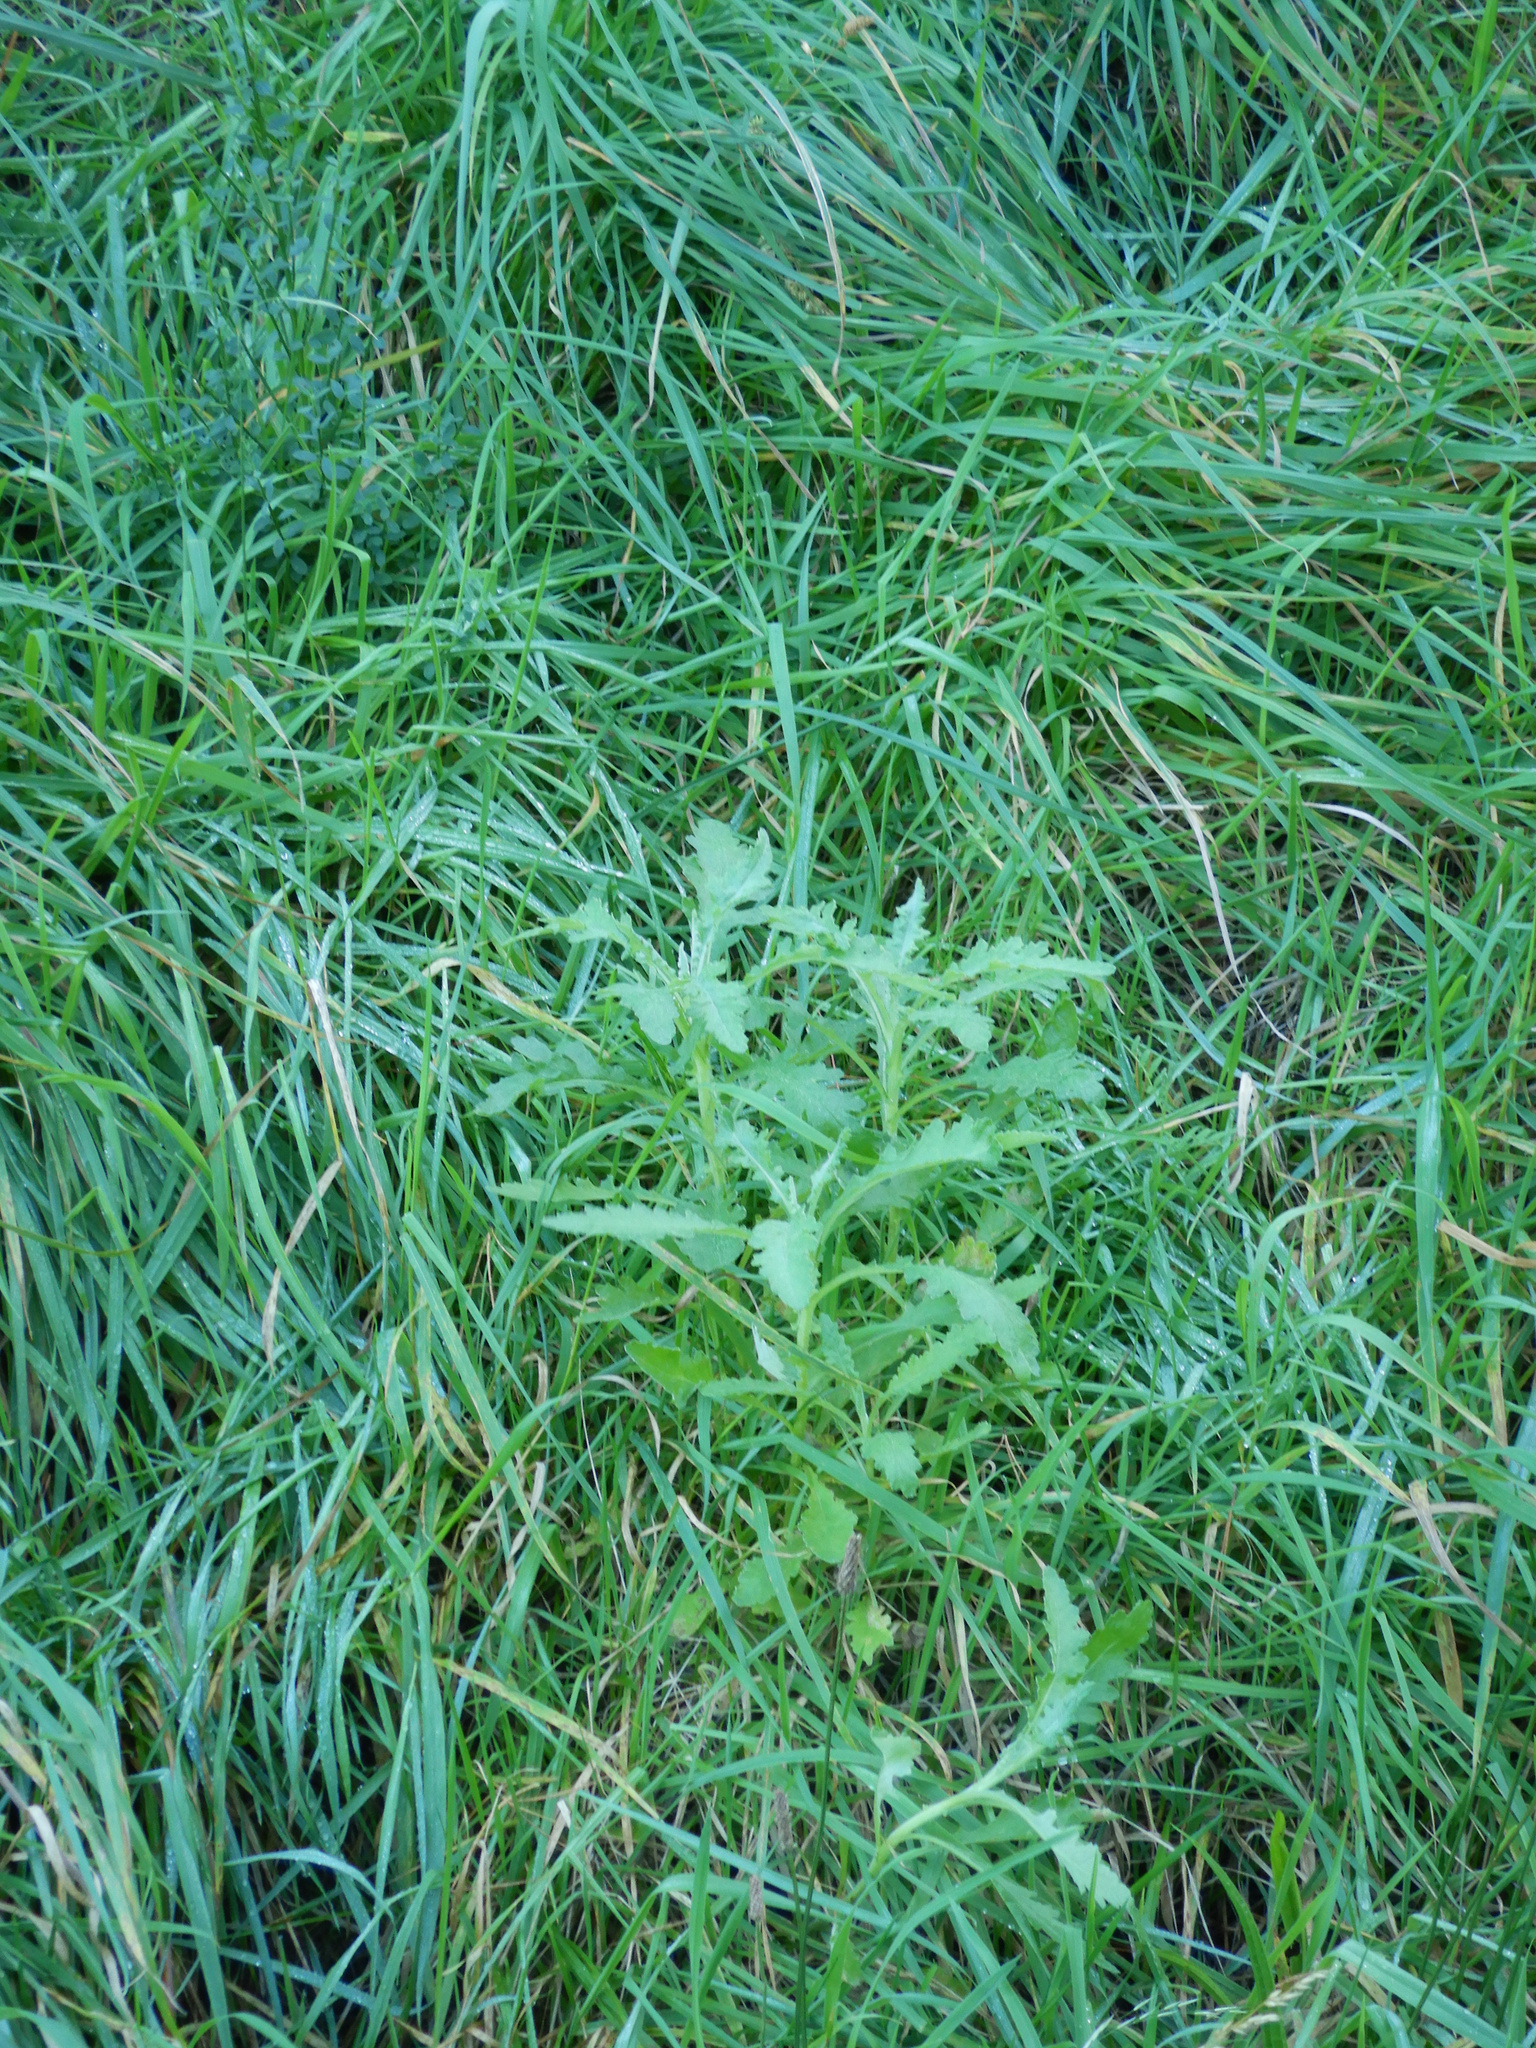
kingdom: Plantae
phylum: Tracheophyta
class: Magnoliopsida
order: Asterales
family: Asteraceae
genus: Senecio
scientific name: Senecio glomeratus
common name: Cutleaf burnweed
